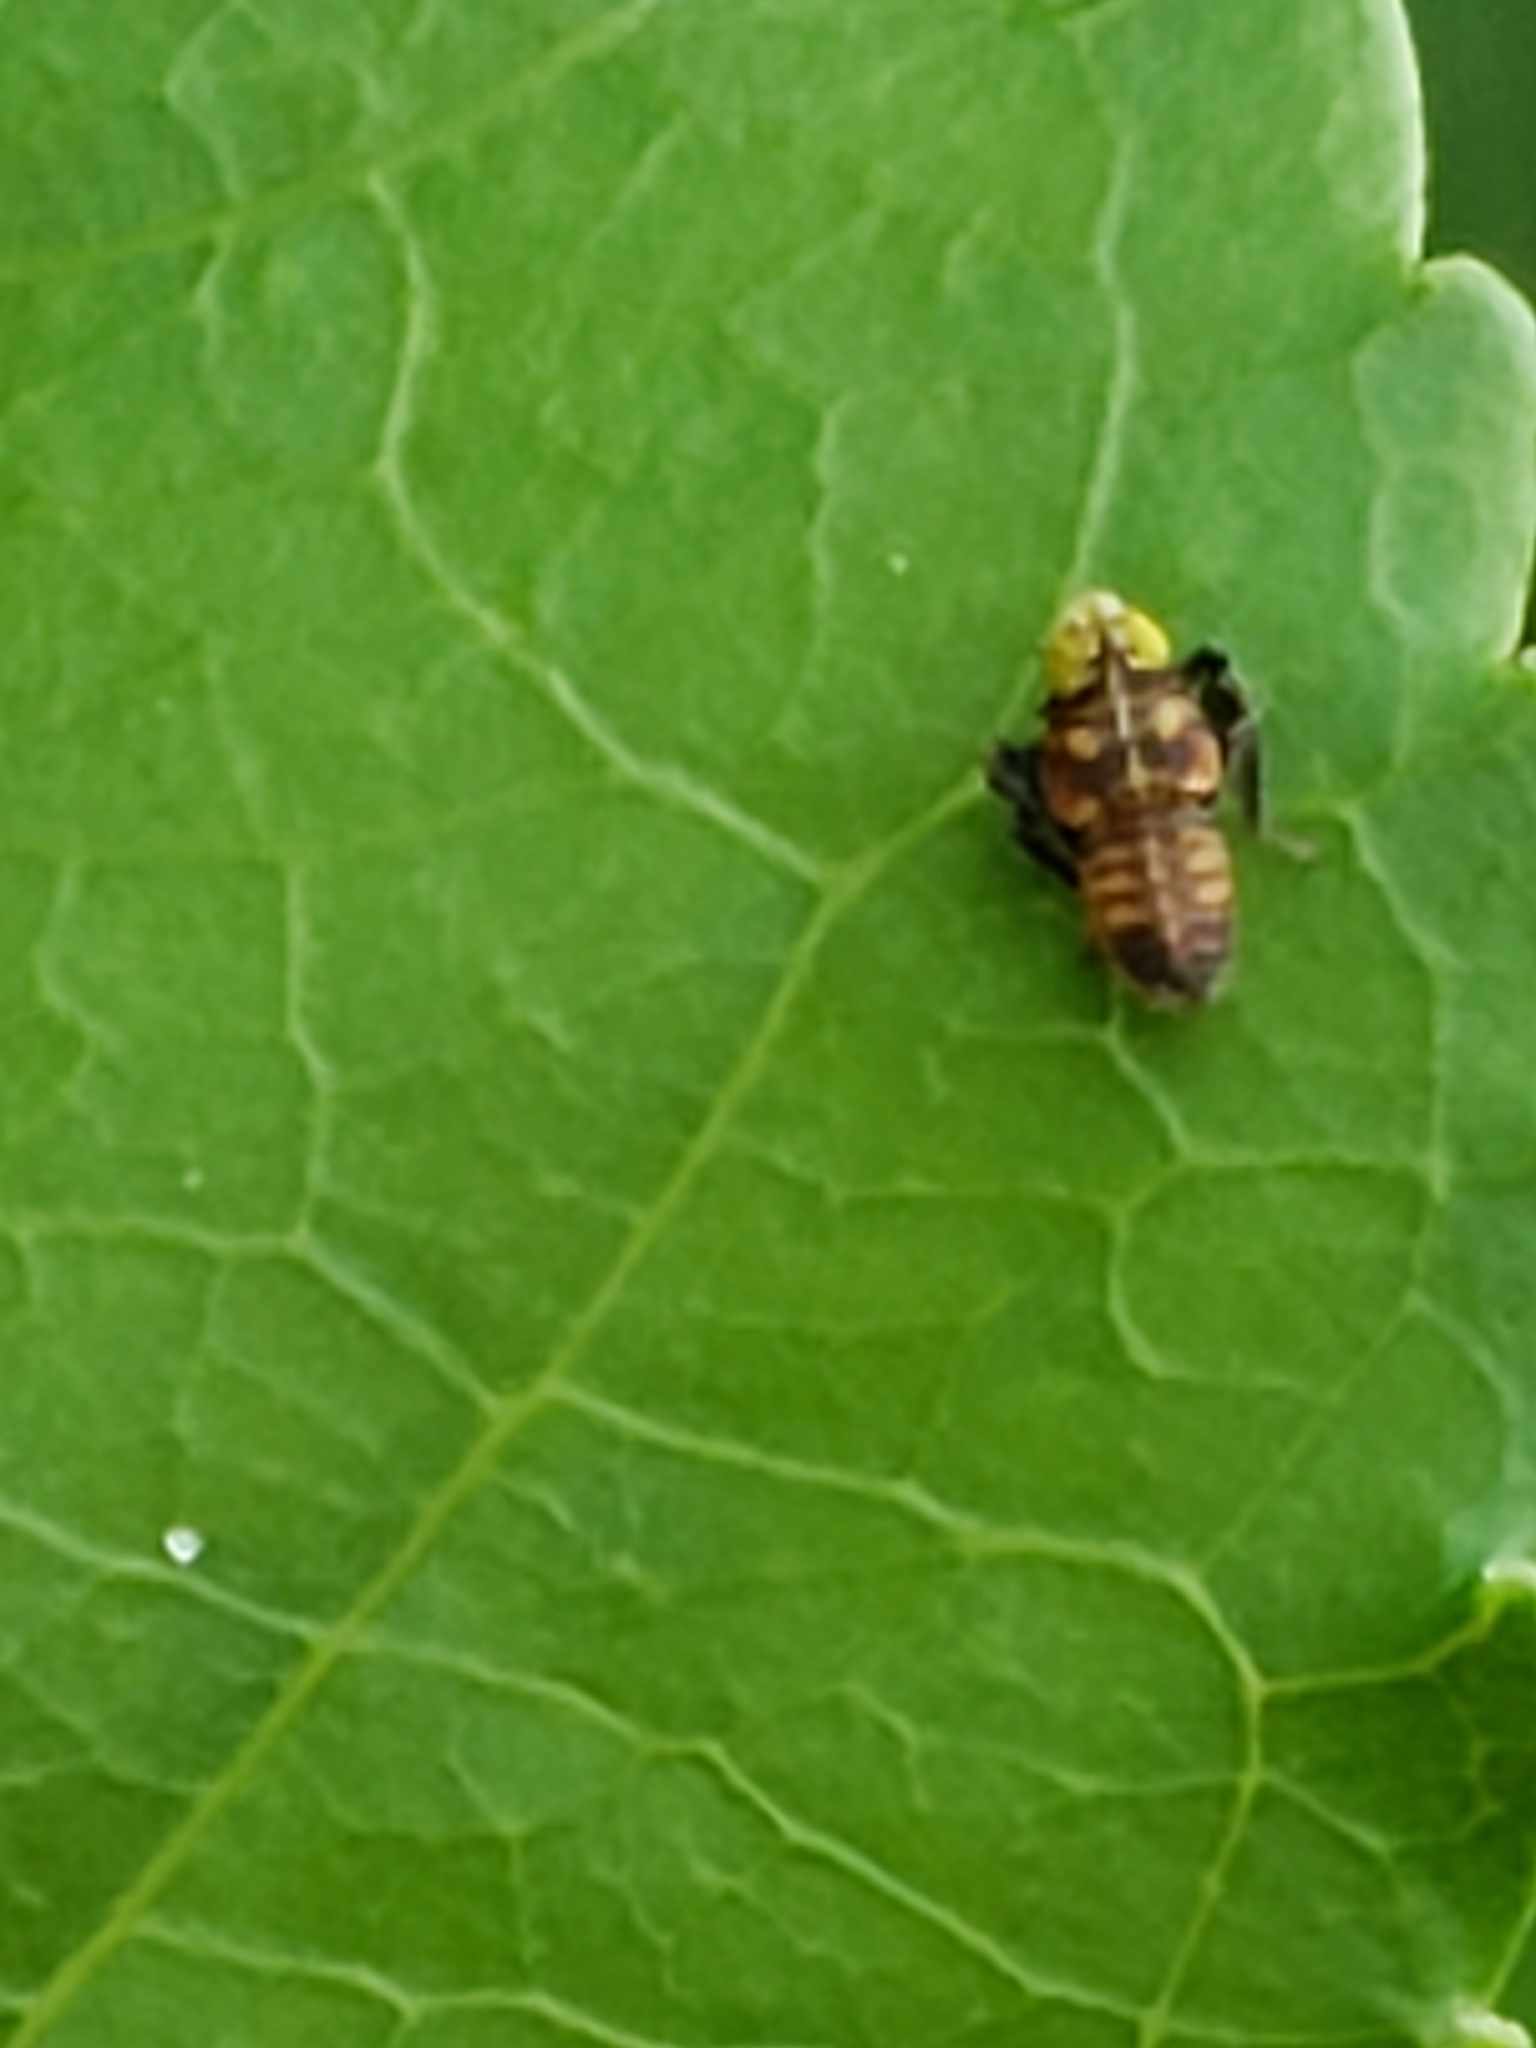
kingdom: Animalia
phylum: Arthropoda
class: Insecta
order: Hemiptera
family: Cicadellidae
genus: Jikradia
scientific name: Jikradia olitoria
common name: Coppery leafhopper
